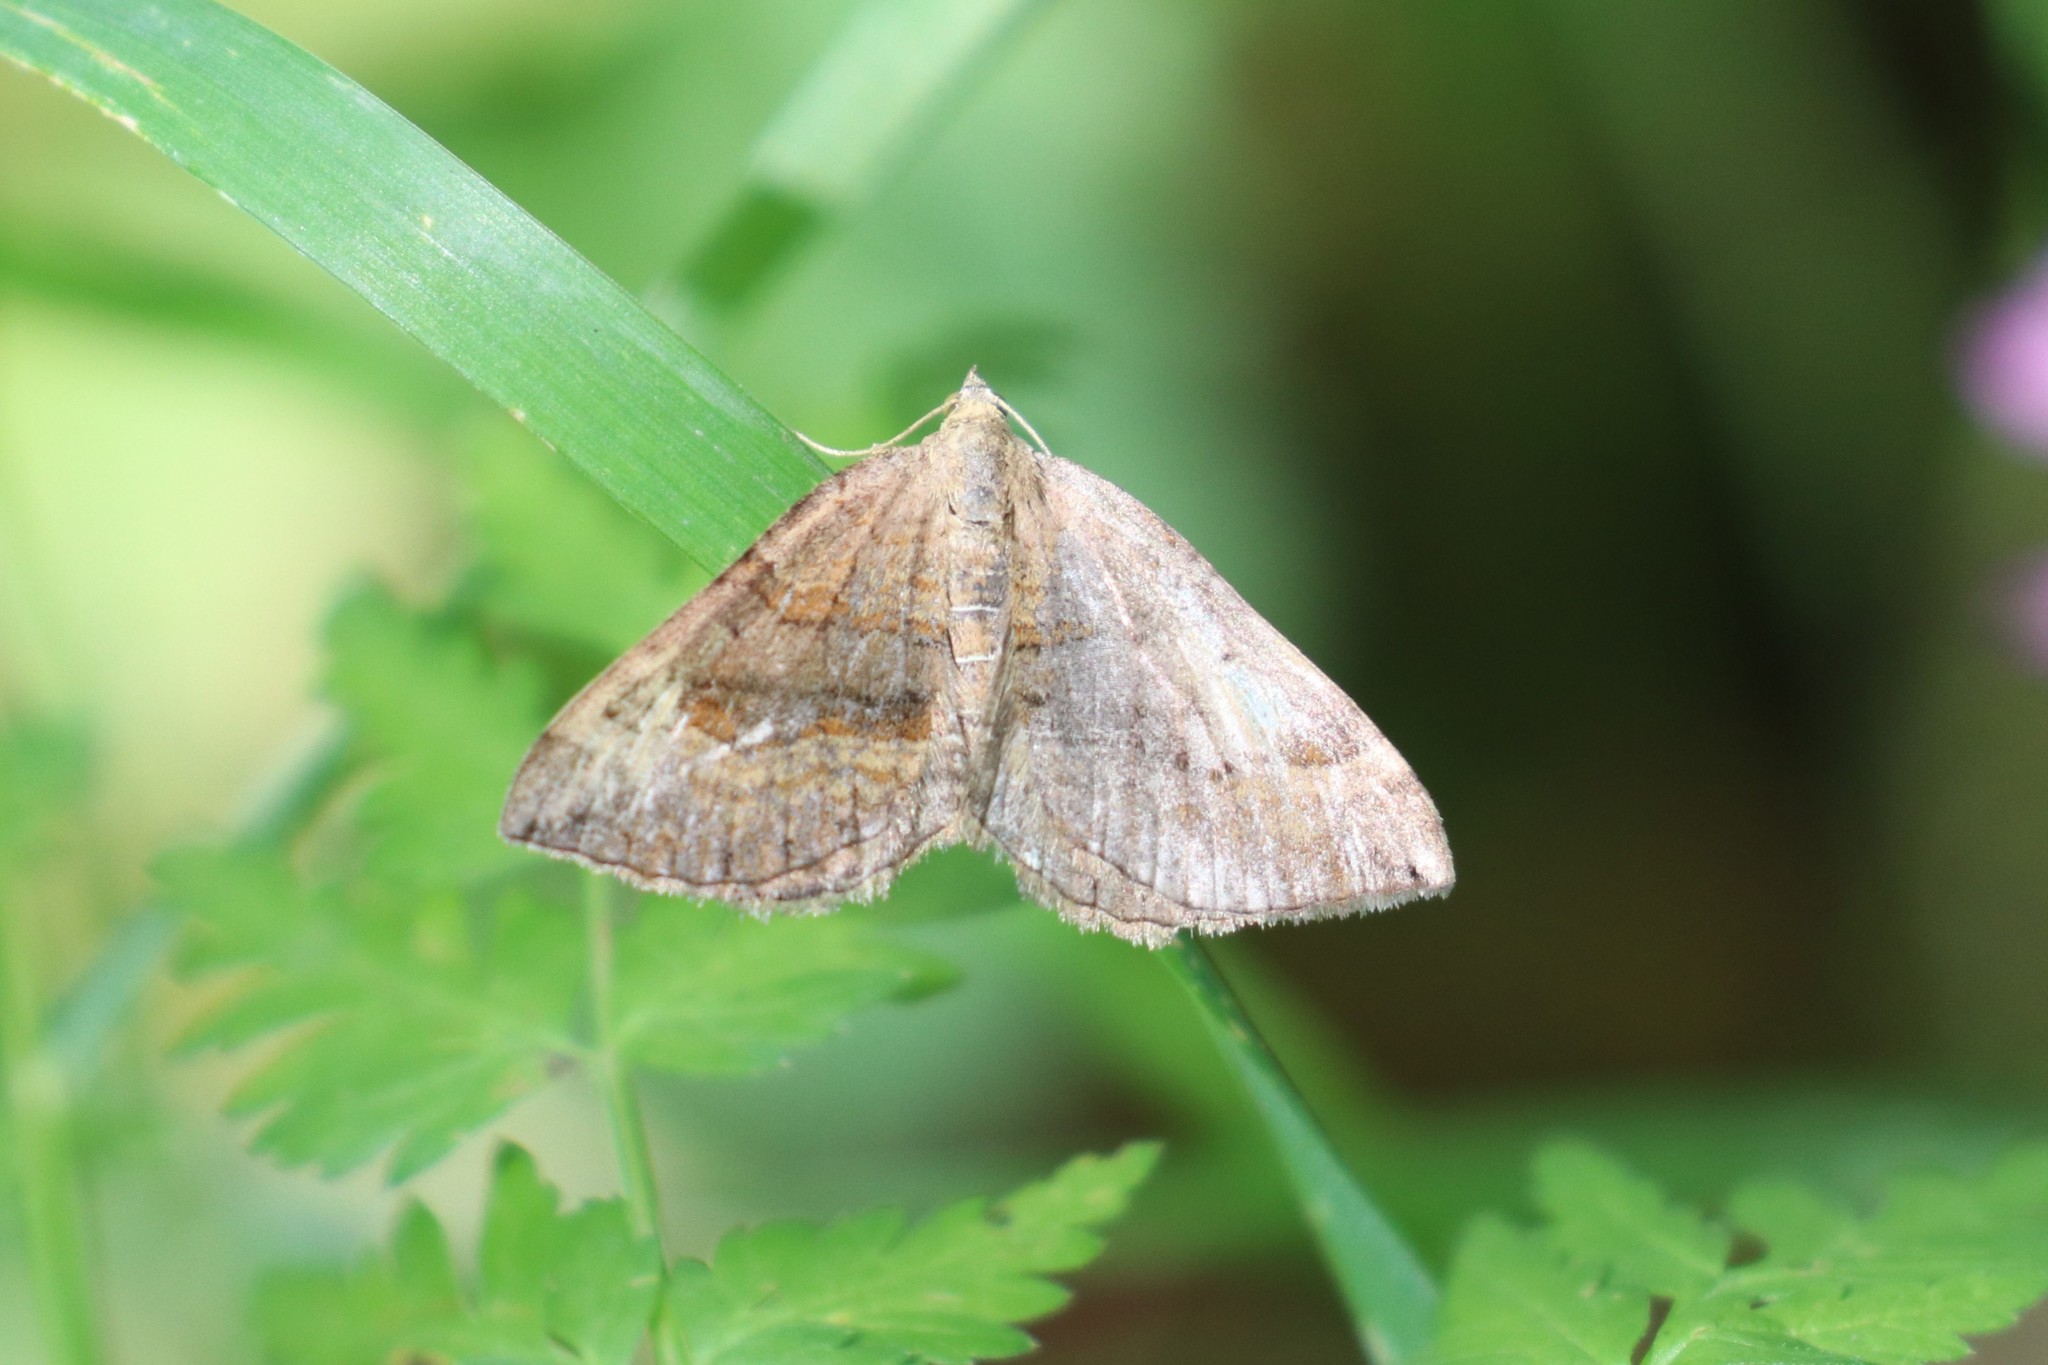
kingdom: Animalia
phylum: Arthropoda
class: Insecta
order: Lepidoptera
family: Geometridae
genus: Scotopteryx
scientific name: Scotopteryx chenopodiata
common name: Shaded broad-bar
